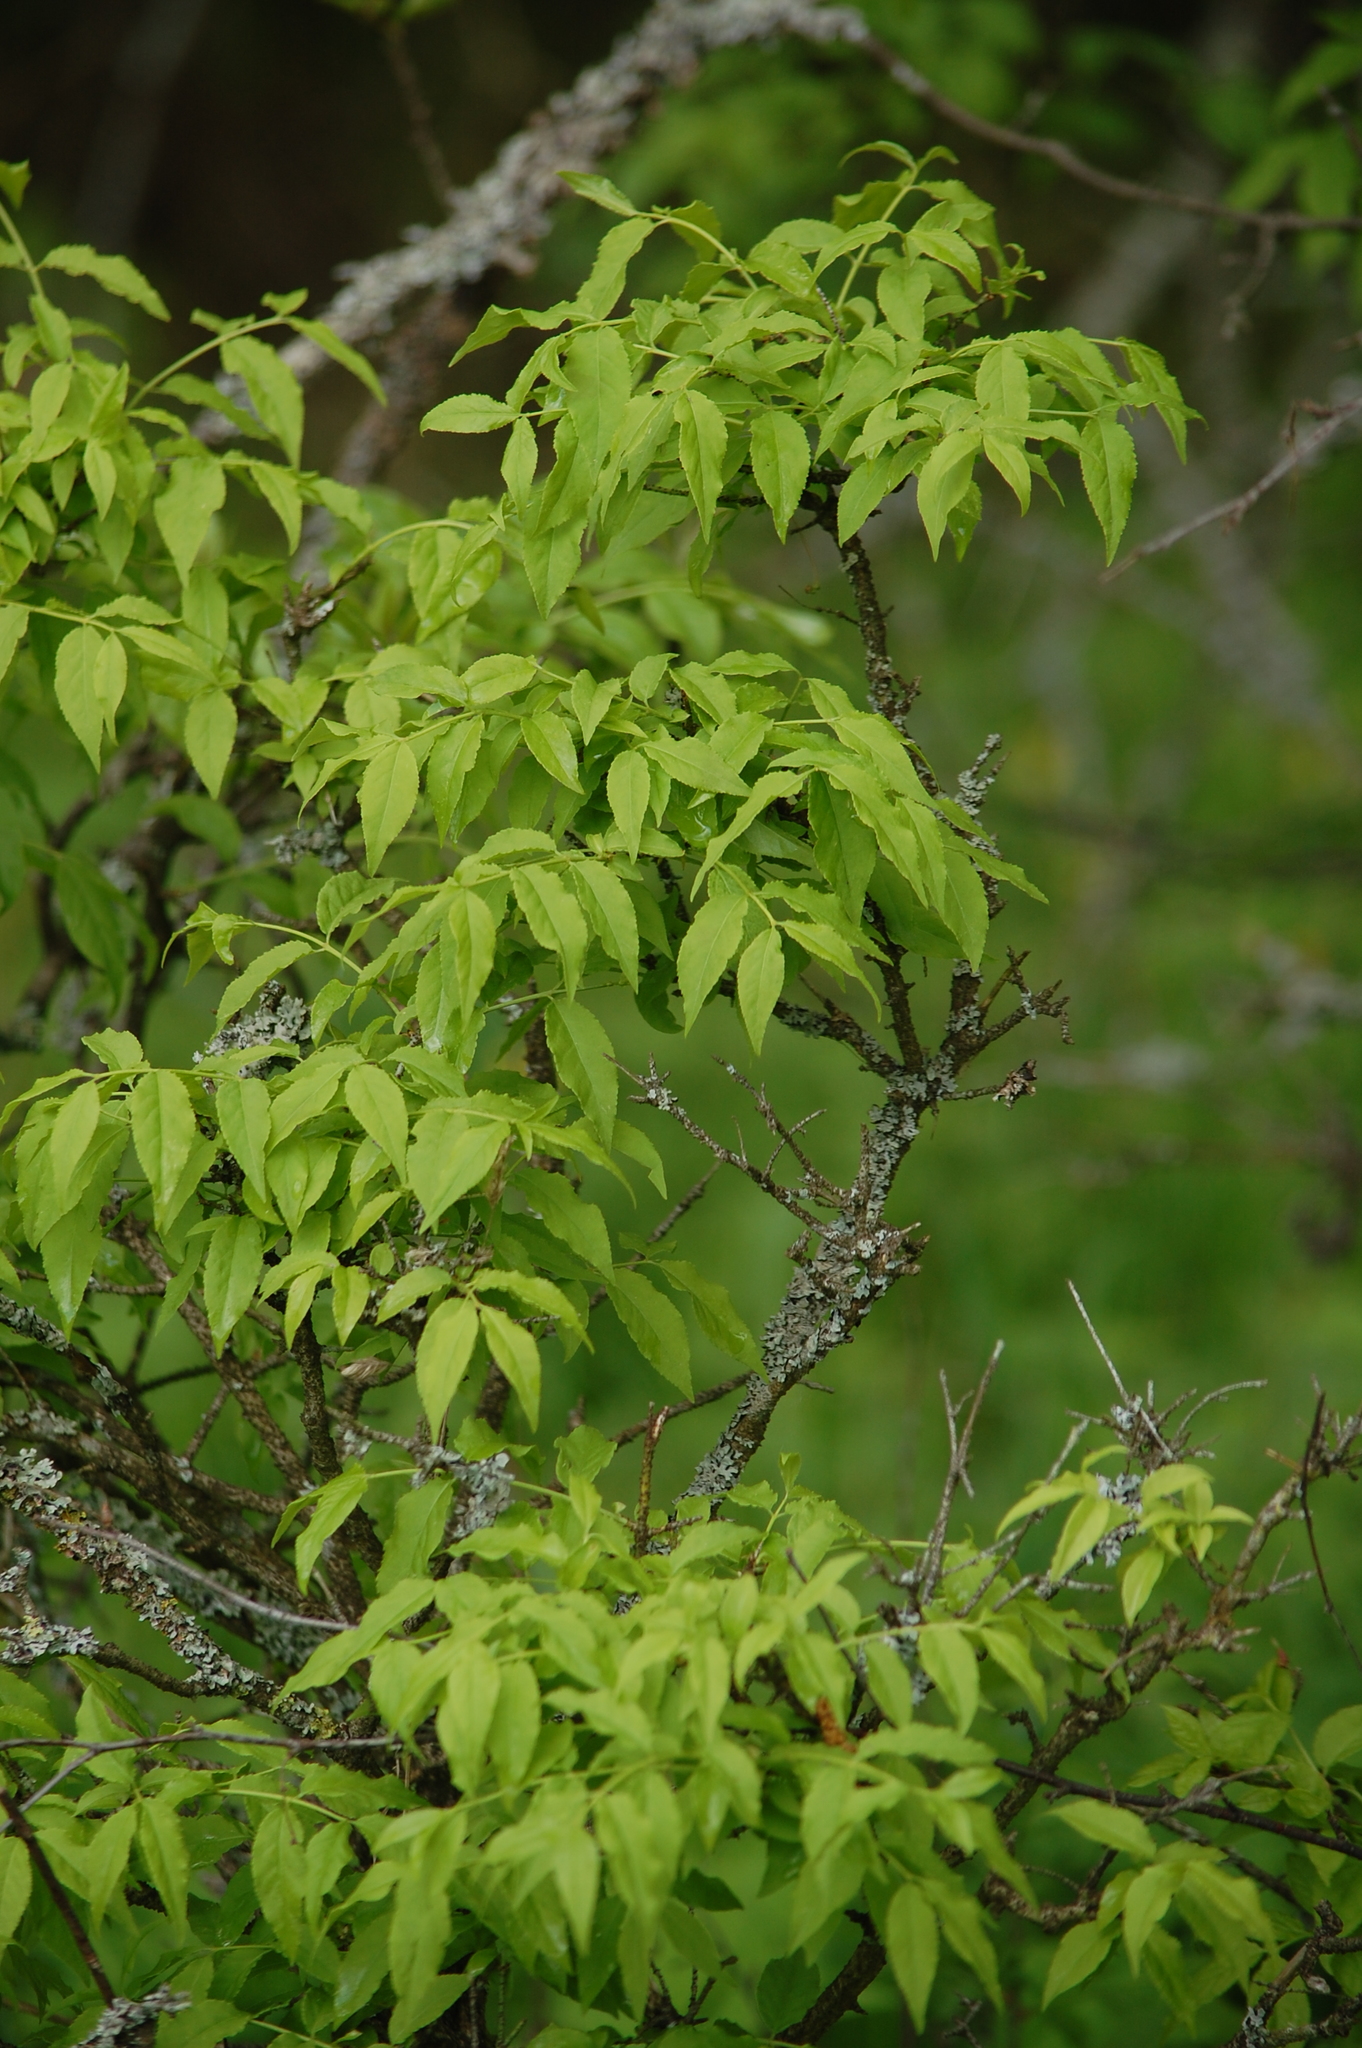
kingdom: Plantae
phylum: Tracheophyta
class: Magnoliopsida
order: Celastrales
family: Celastraceae
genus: Euonymus
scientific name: Euonymus verrucosus
